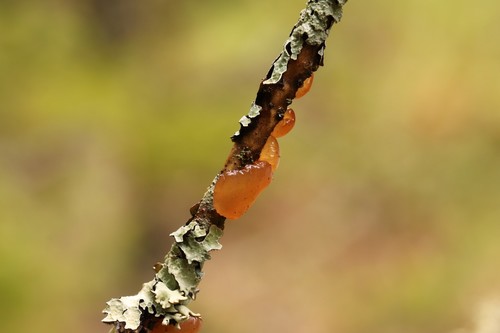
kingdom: Fungi
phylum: Basidiomycota
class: Dacrymycetes
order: Dacrymycetales
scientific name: Dacrymycetales
